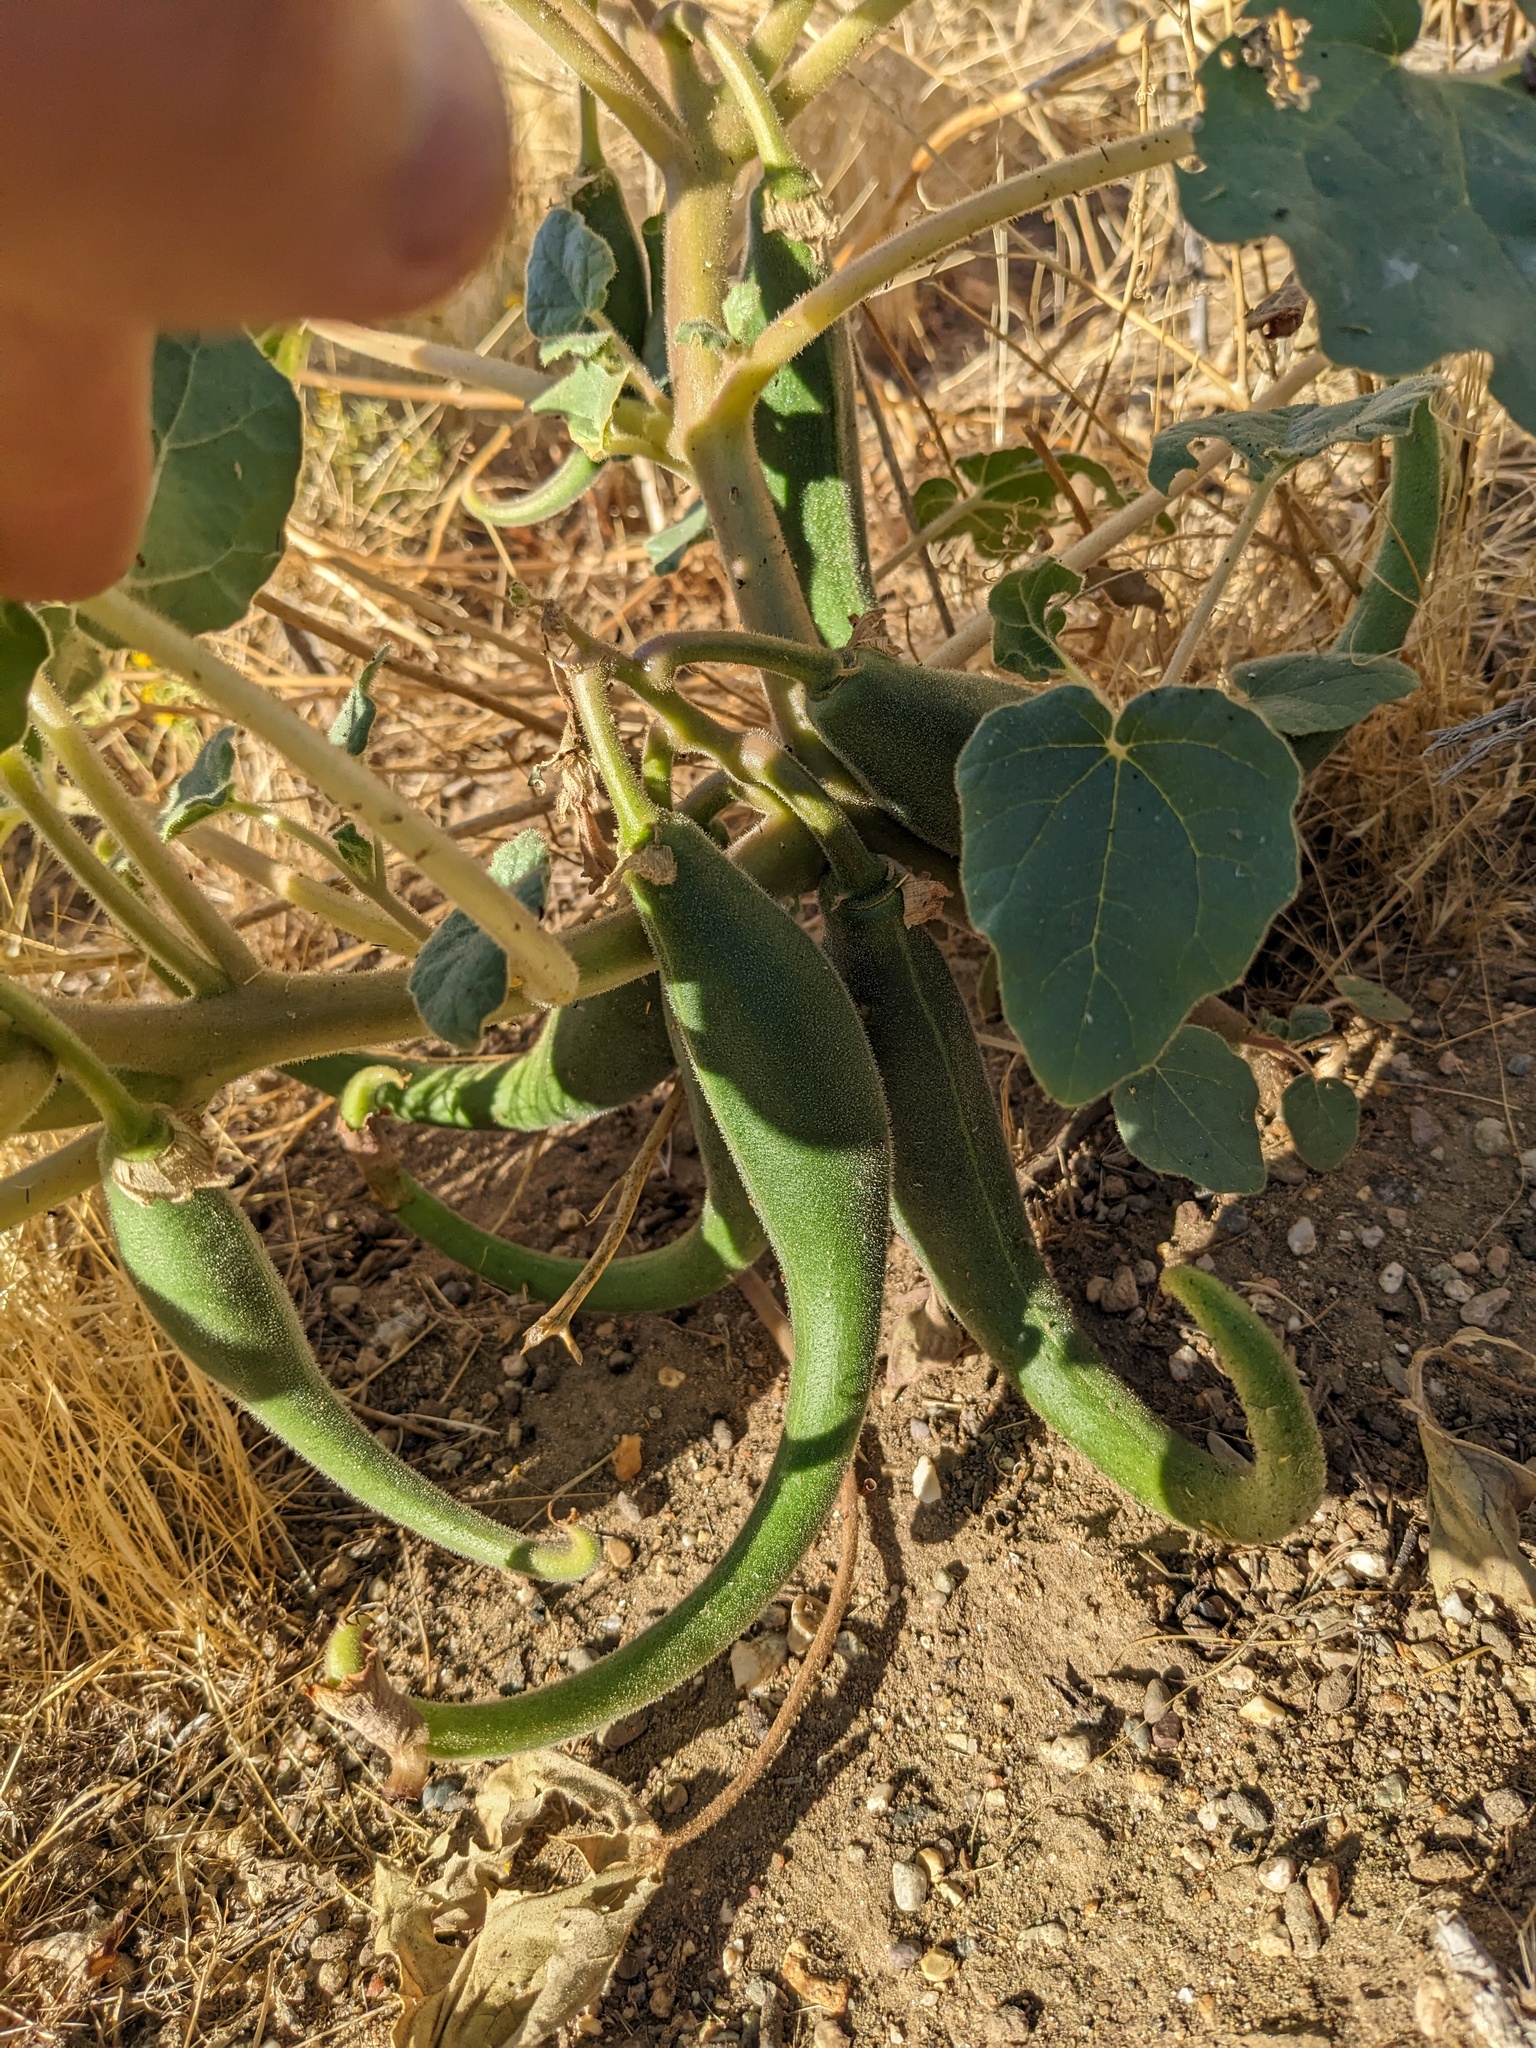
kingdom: Plantae
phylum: Tracheophyta
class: Magnoliopsida
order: Lamiales
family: Martyniaceae
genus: Proboscidea
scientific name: Proboscidea parviflora
